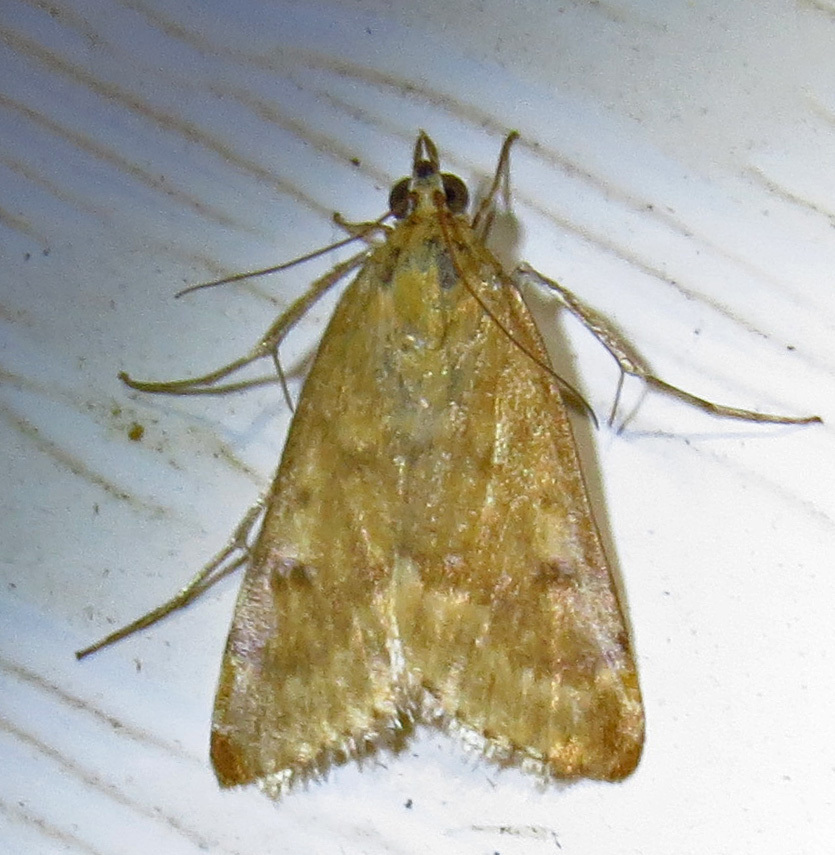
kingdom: Animalia
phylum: Arthropoda
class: Insecta
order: Lepidoptera
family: Crambidae
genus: Achyra
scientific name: Achyra rantalis
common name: Garden webworm
